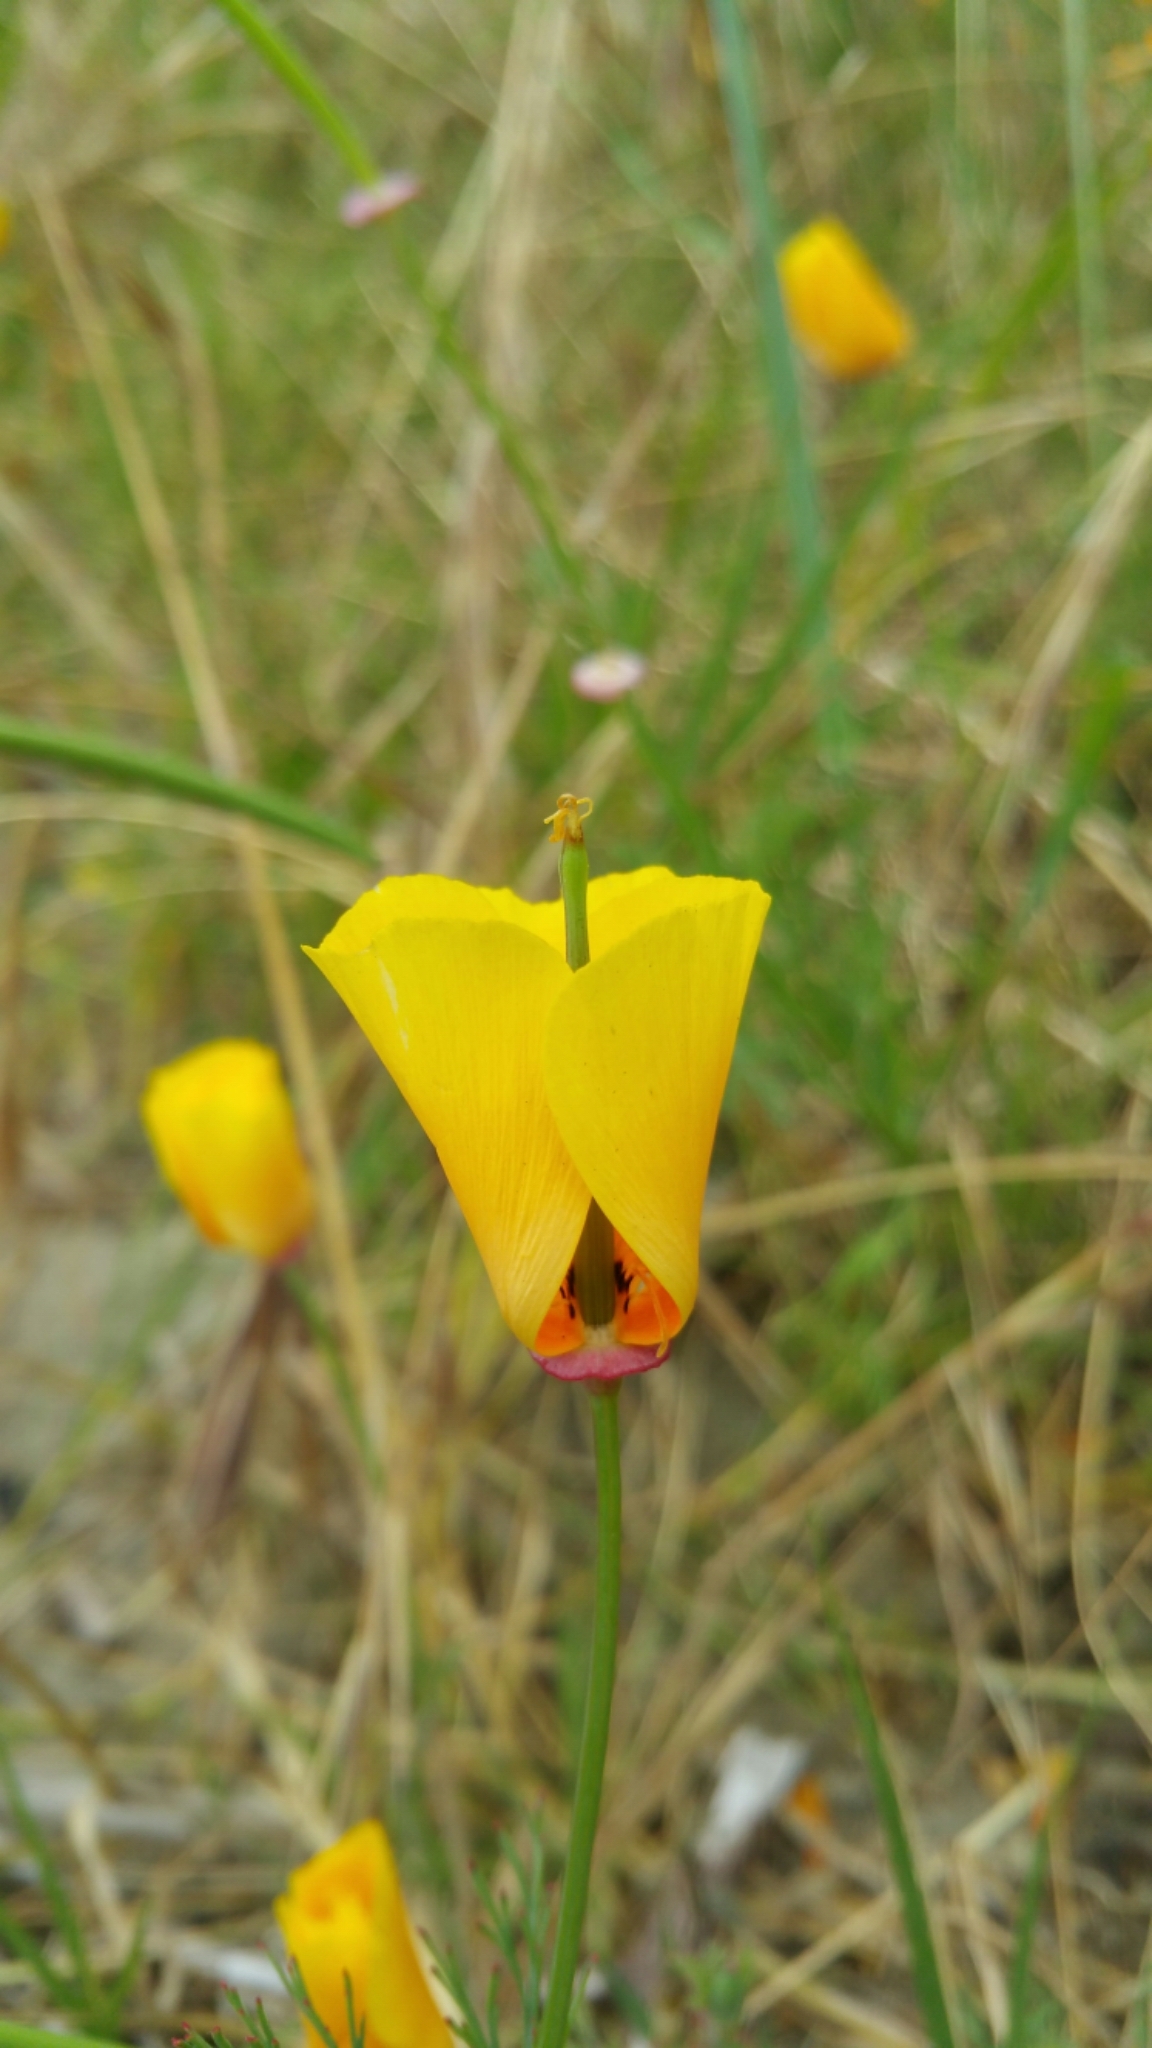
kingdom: Plantae
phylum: Tracheophyta
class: Magnoliopsida
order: Ranunculales
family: Papaveraceae
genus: Eschscholzia
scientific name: Eschscholzia californica
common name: California poppy
